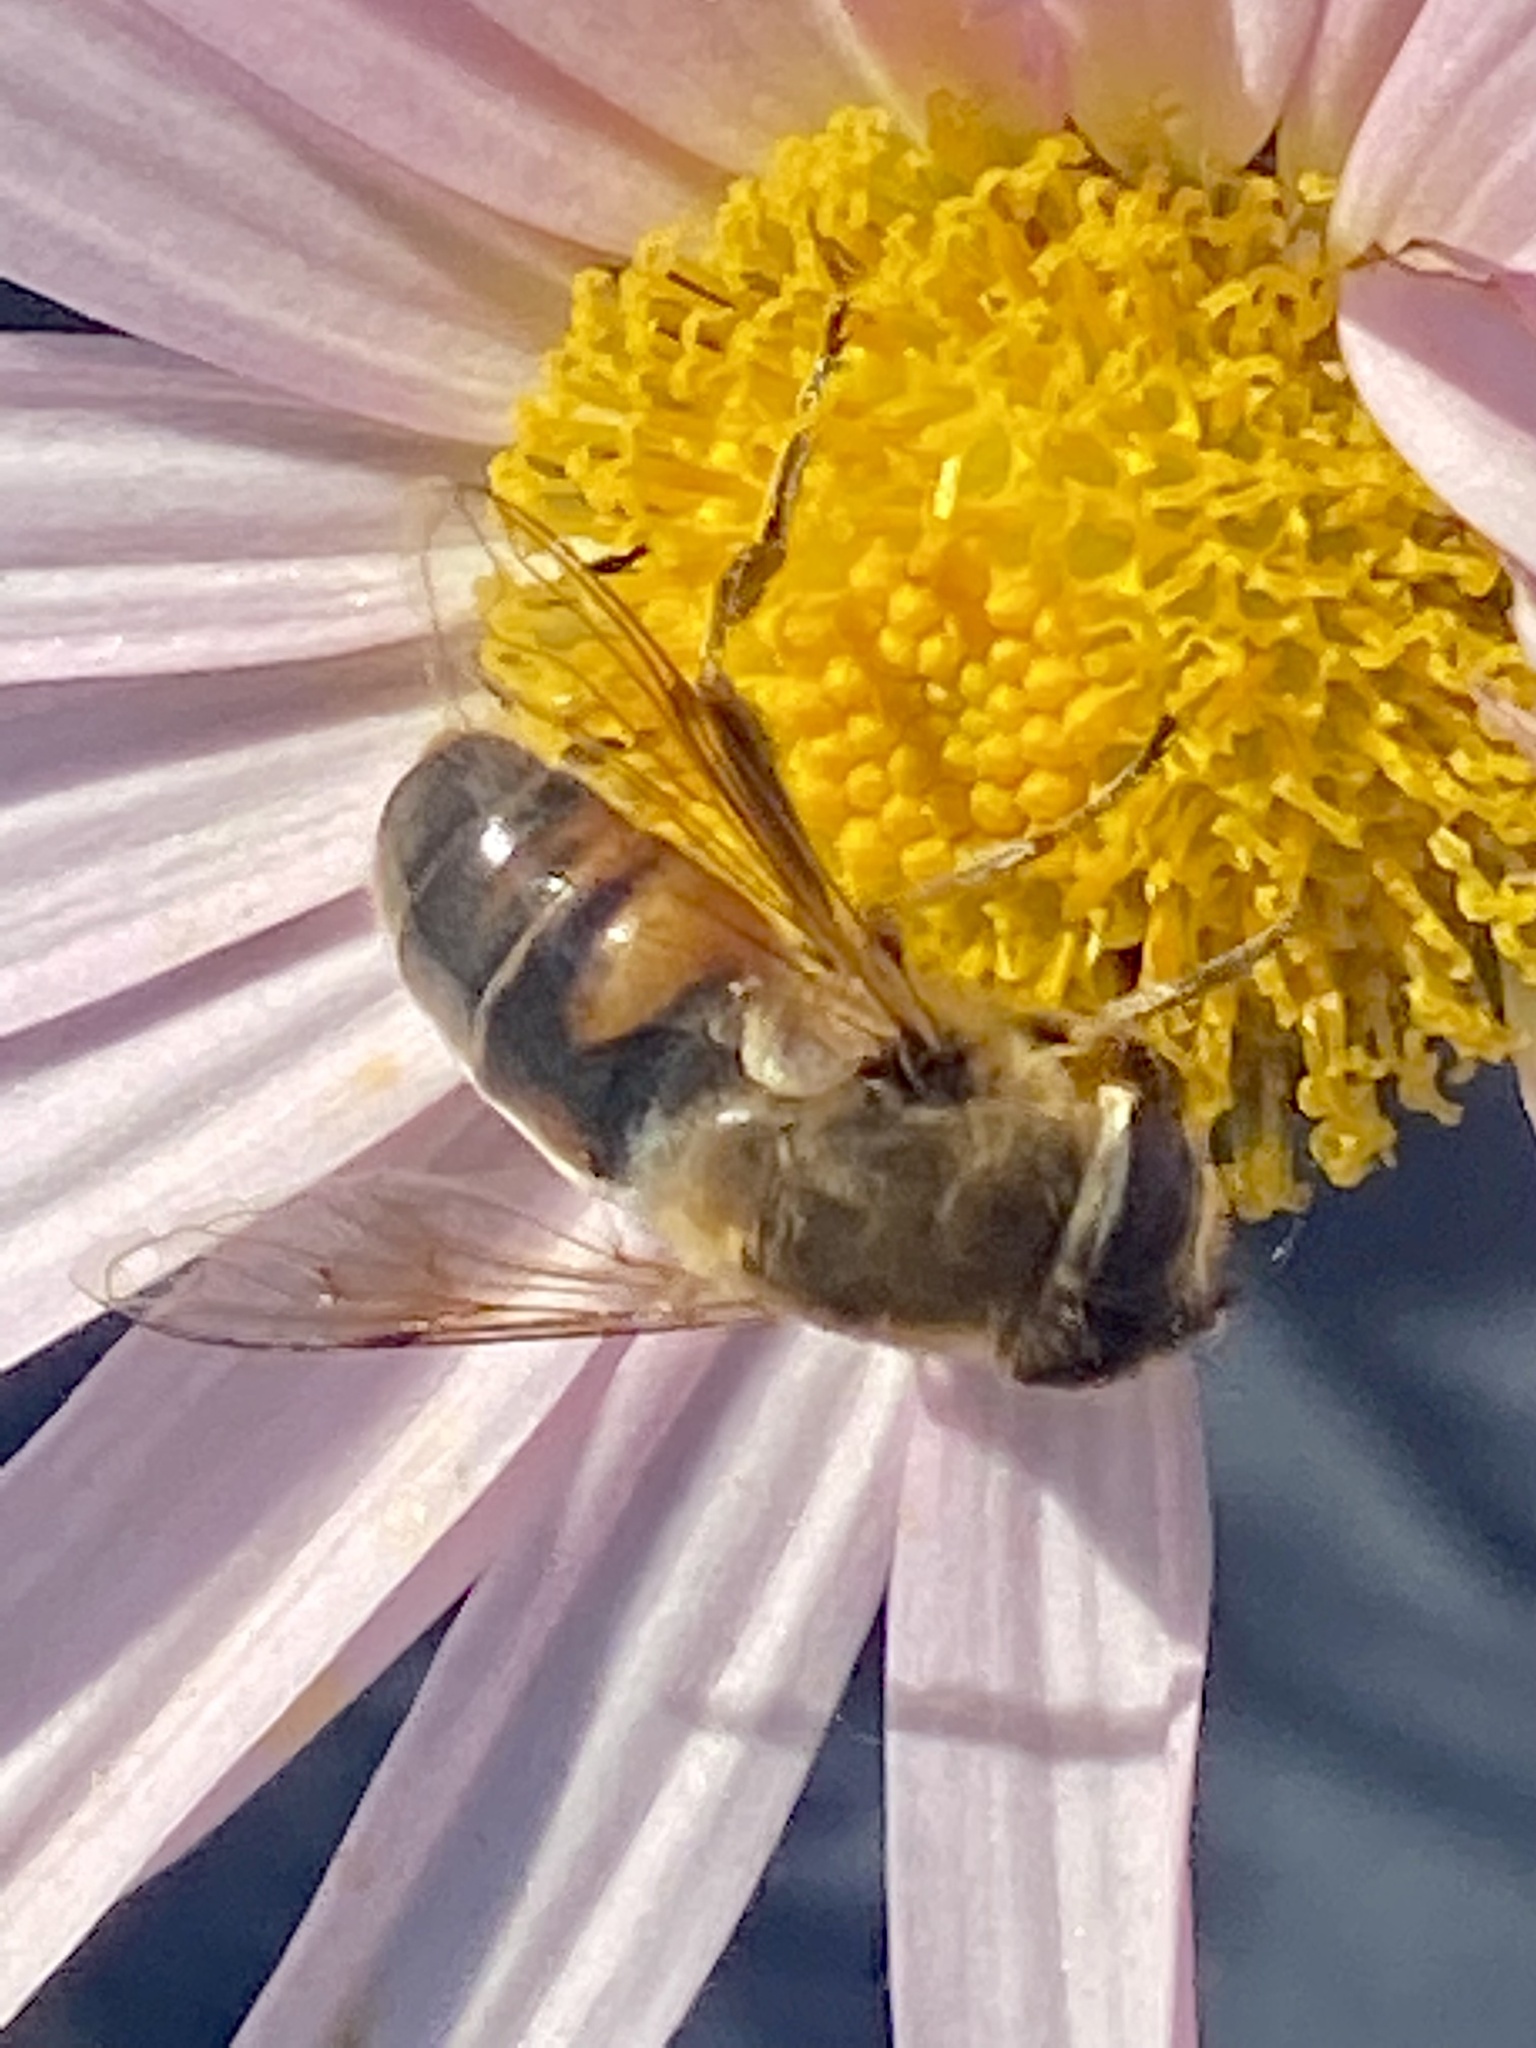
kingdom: Animalia
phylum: Arthropoda
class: Insecta
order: Diptera
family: Syrphidae
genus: Eristalis
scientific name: Eristalis tenax
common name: Drone fly
